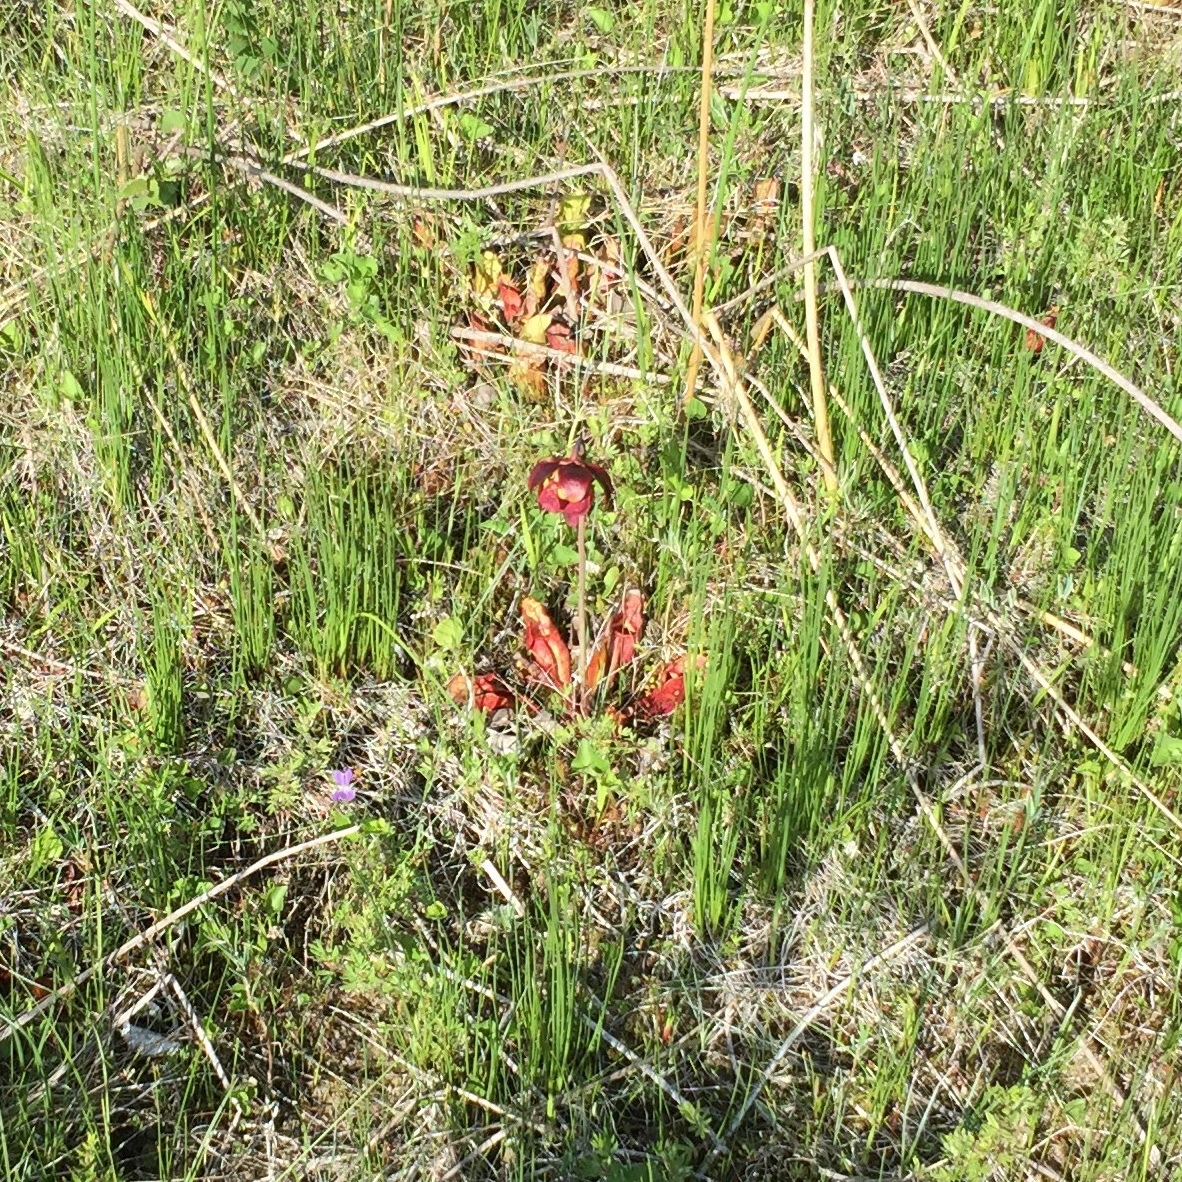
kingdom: Plantae
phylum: Tracheophyta
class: Magnoliopsida
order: Ericales
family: Sarraceniaceae
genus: Sarracenia
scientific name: Sarracenia purpurea
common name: Pitcherplant
